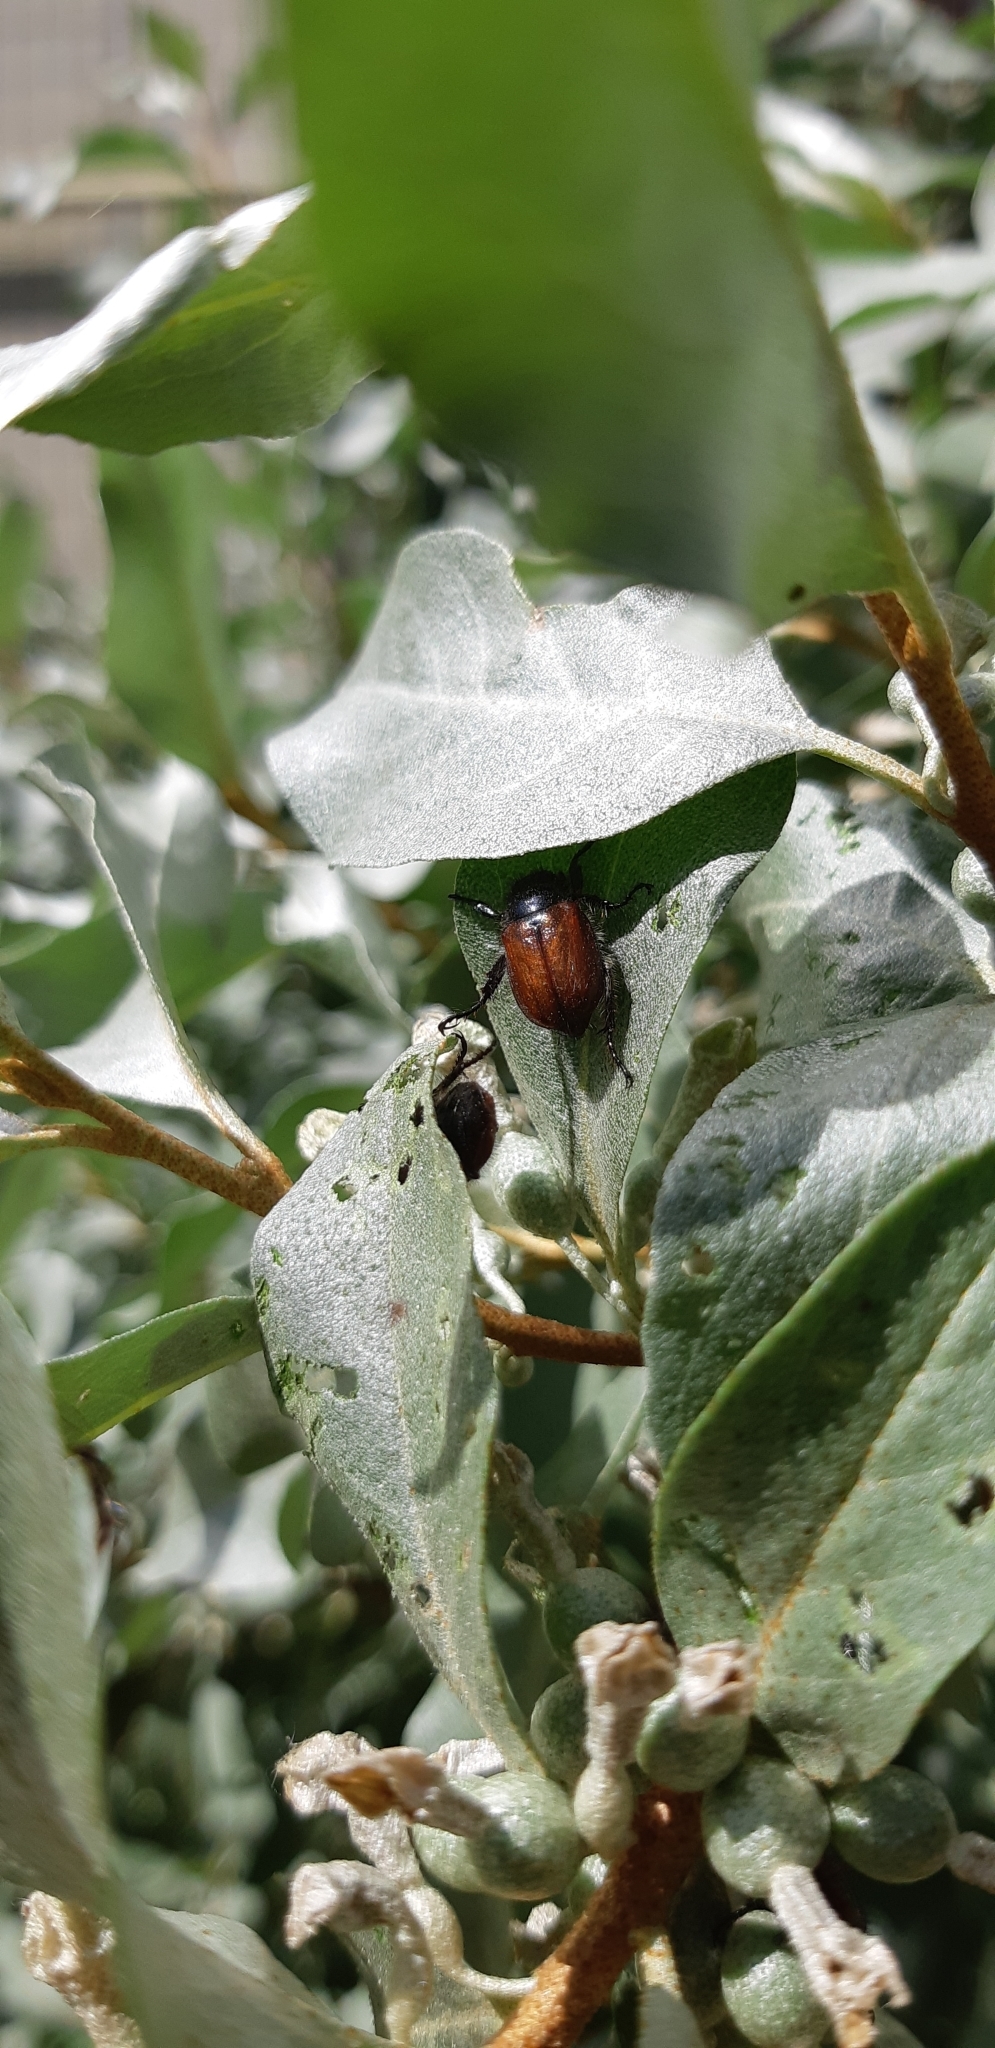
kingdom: Animalia
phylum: Arthropoda
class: Insecta
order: Coleoptera
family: Scarabaeidae
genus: Phyllopertha
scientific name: Phyllopertha horticola
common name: Garden chafer
